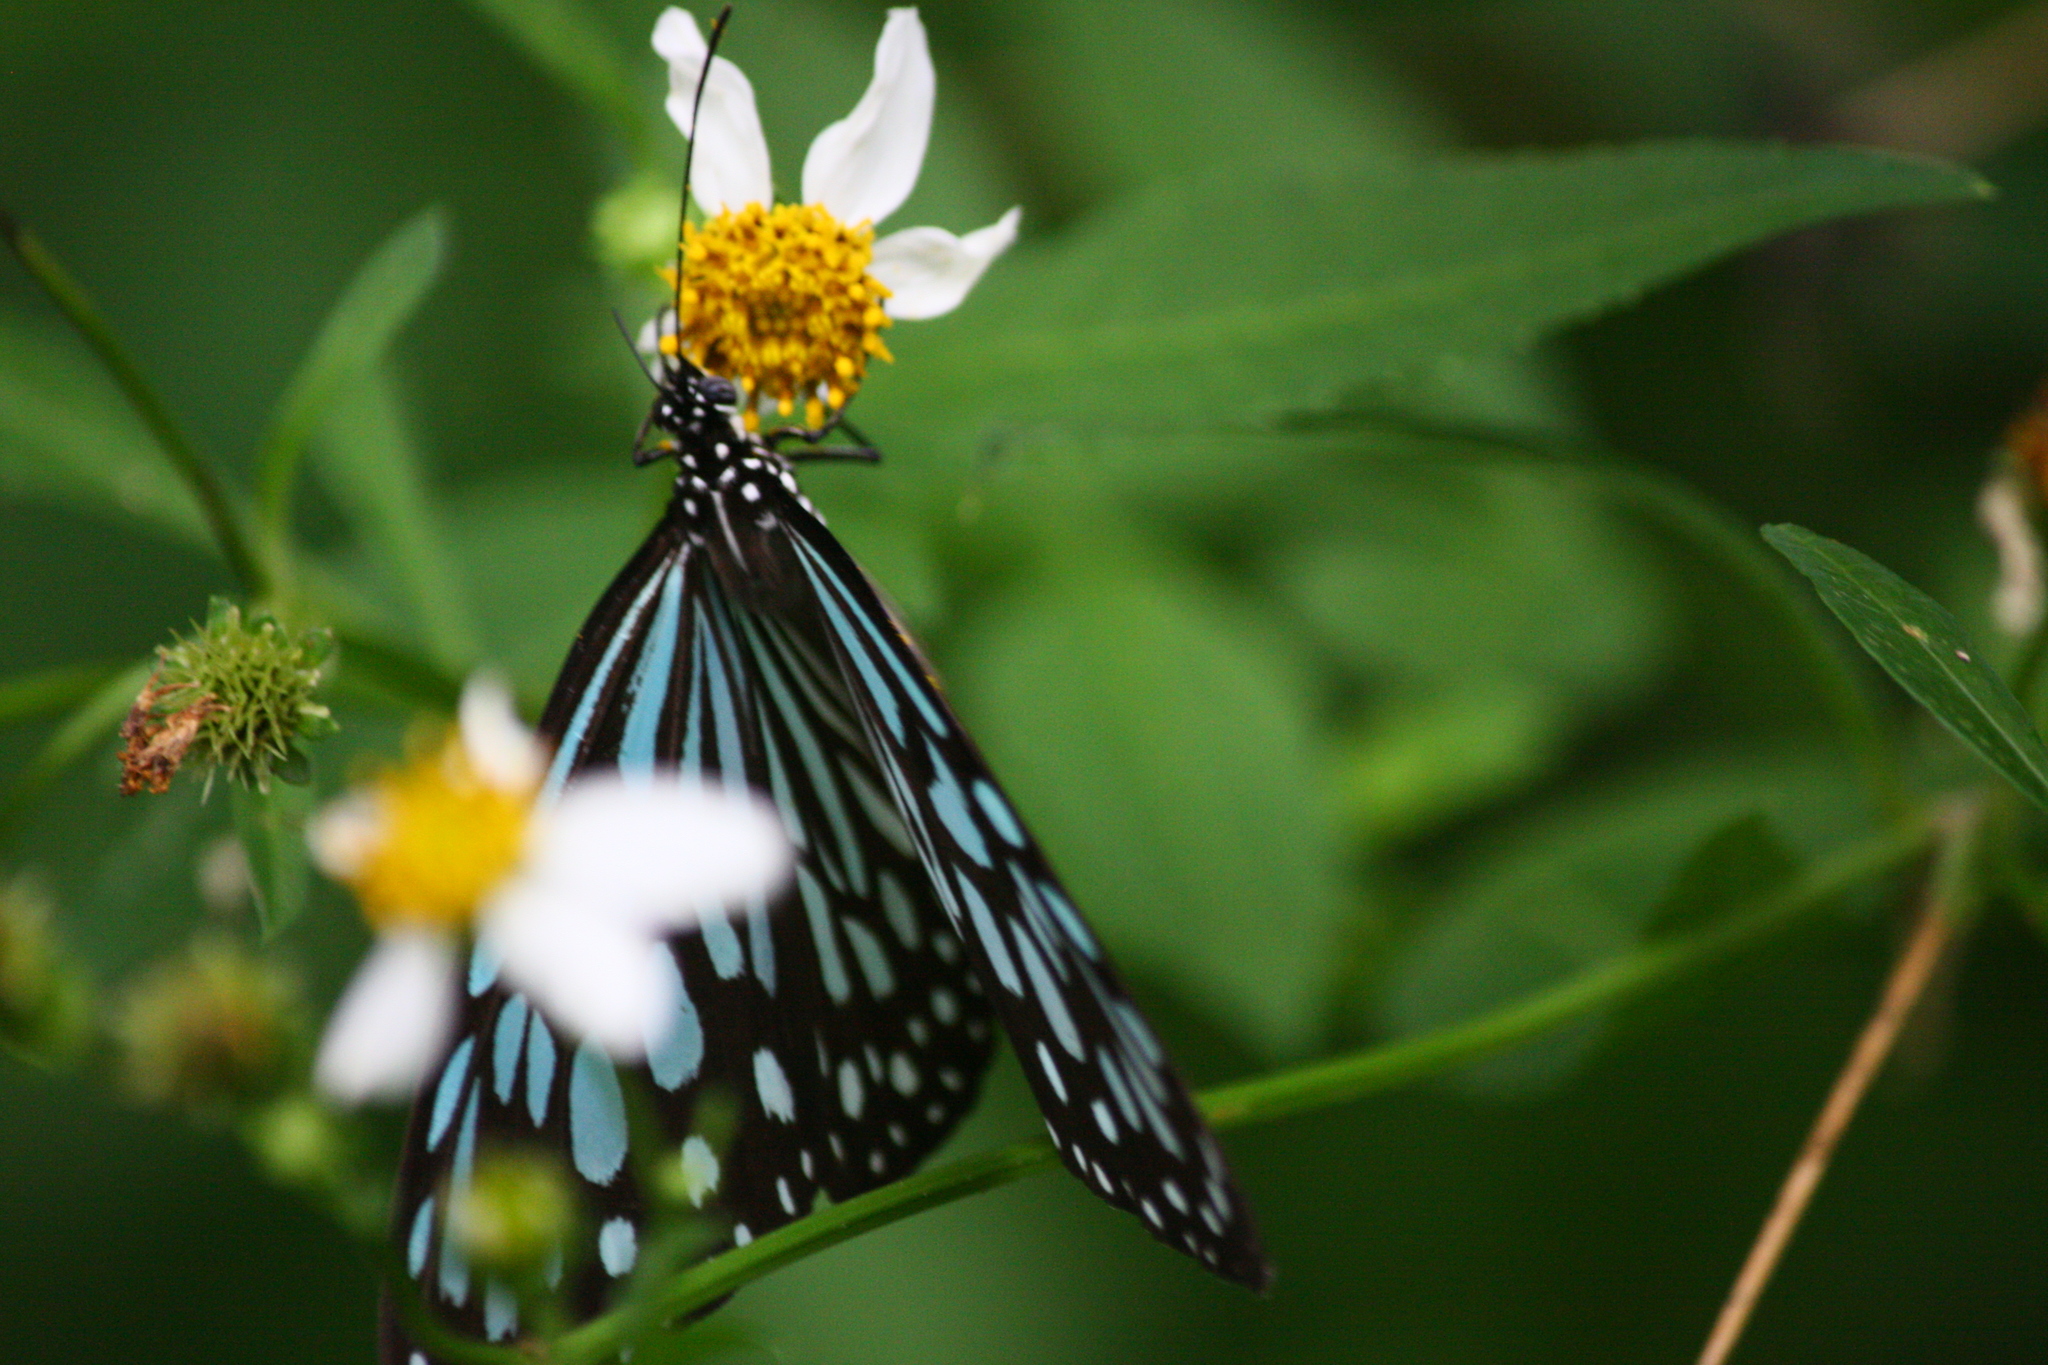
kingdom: Animalia
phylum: Arthropoda
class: Insecta
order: Lepidoptera
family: Nymphalidae
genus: Ideopsis
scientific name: Ideopsis similis
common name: Ceylon blue glassy tiger
